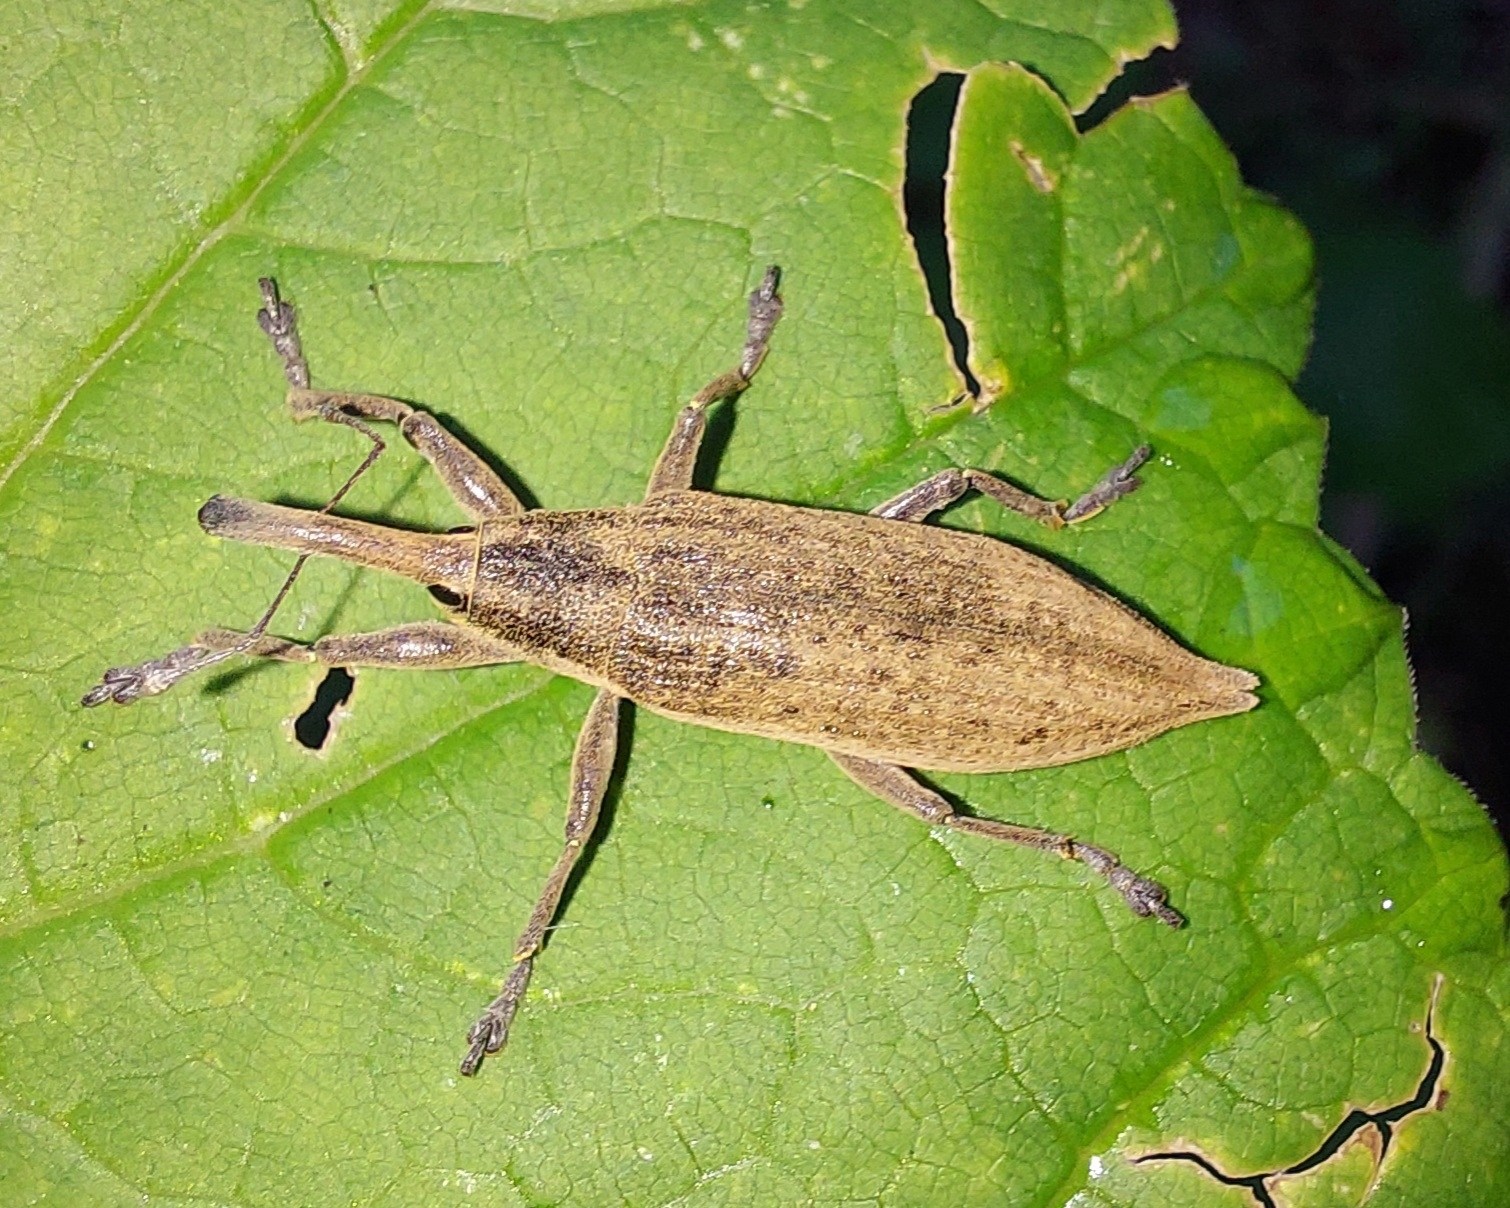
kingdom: Animalia
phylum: Arthropoda
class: Insecta
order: Coleoptera
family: Curculionidae
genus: Lixus
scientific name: Lixus iridis
